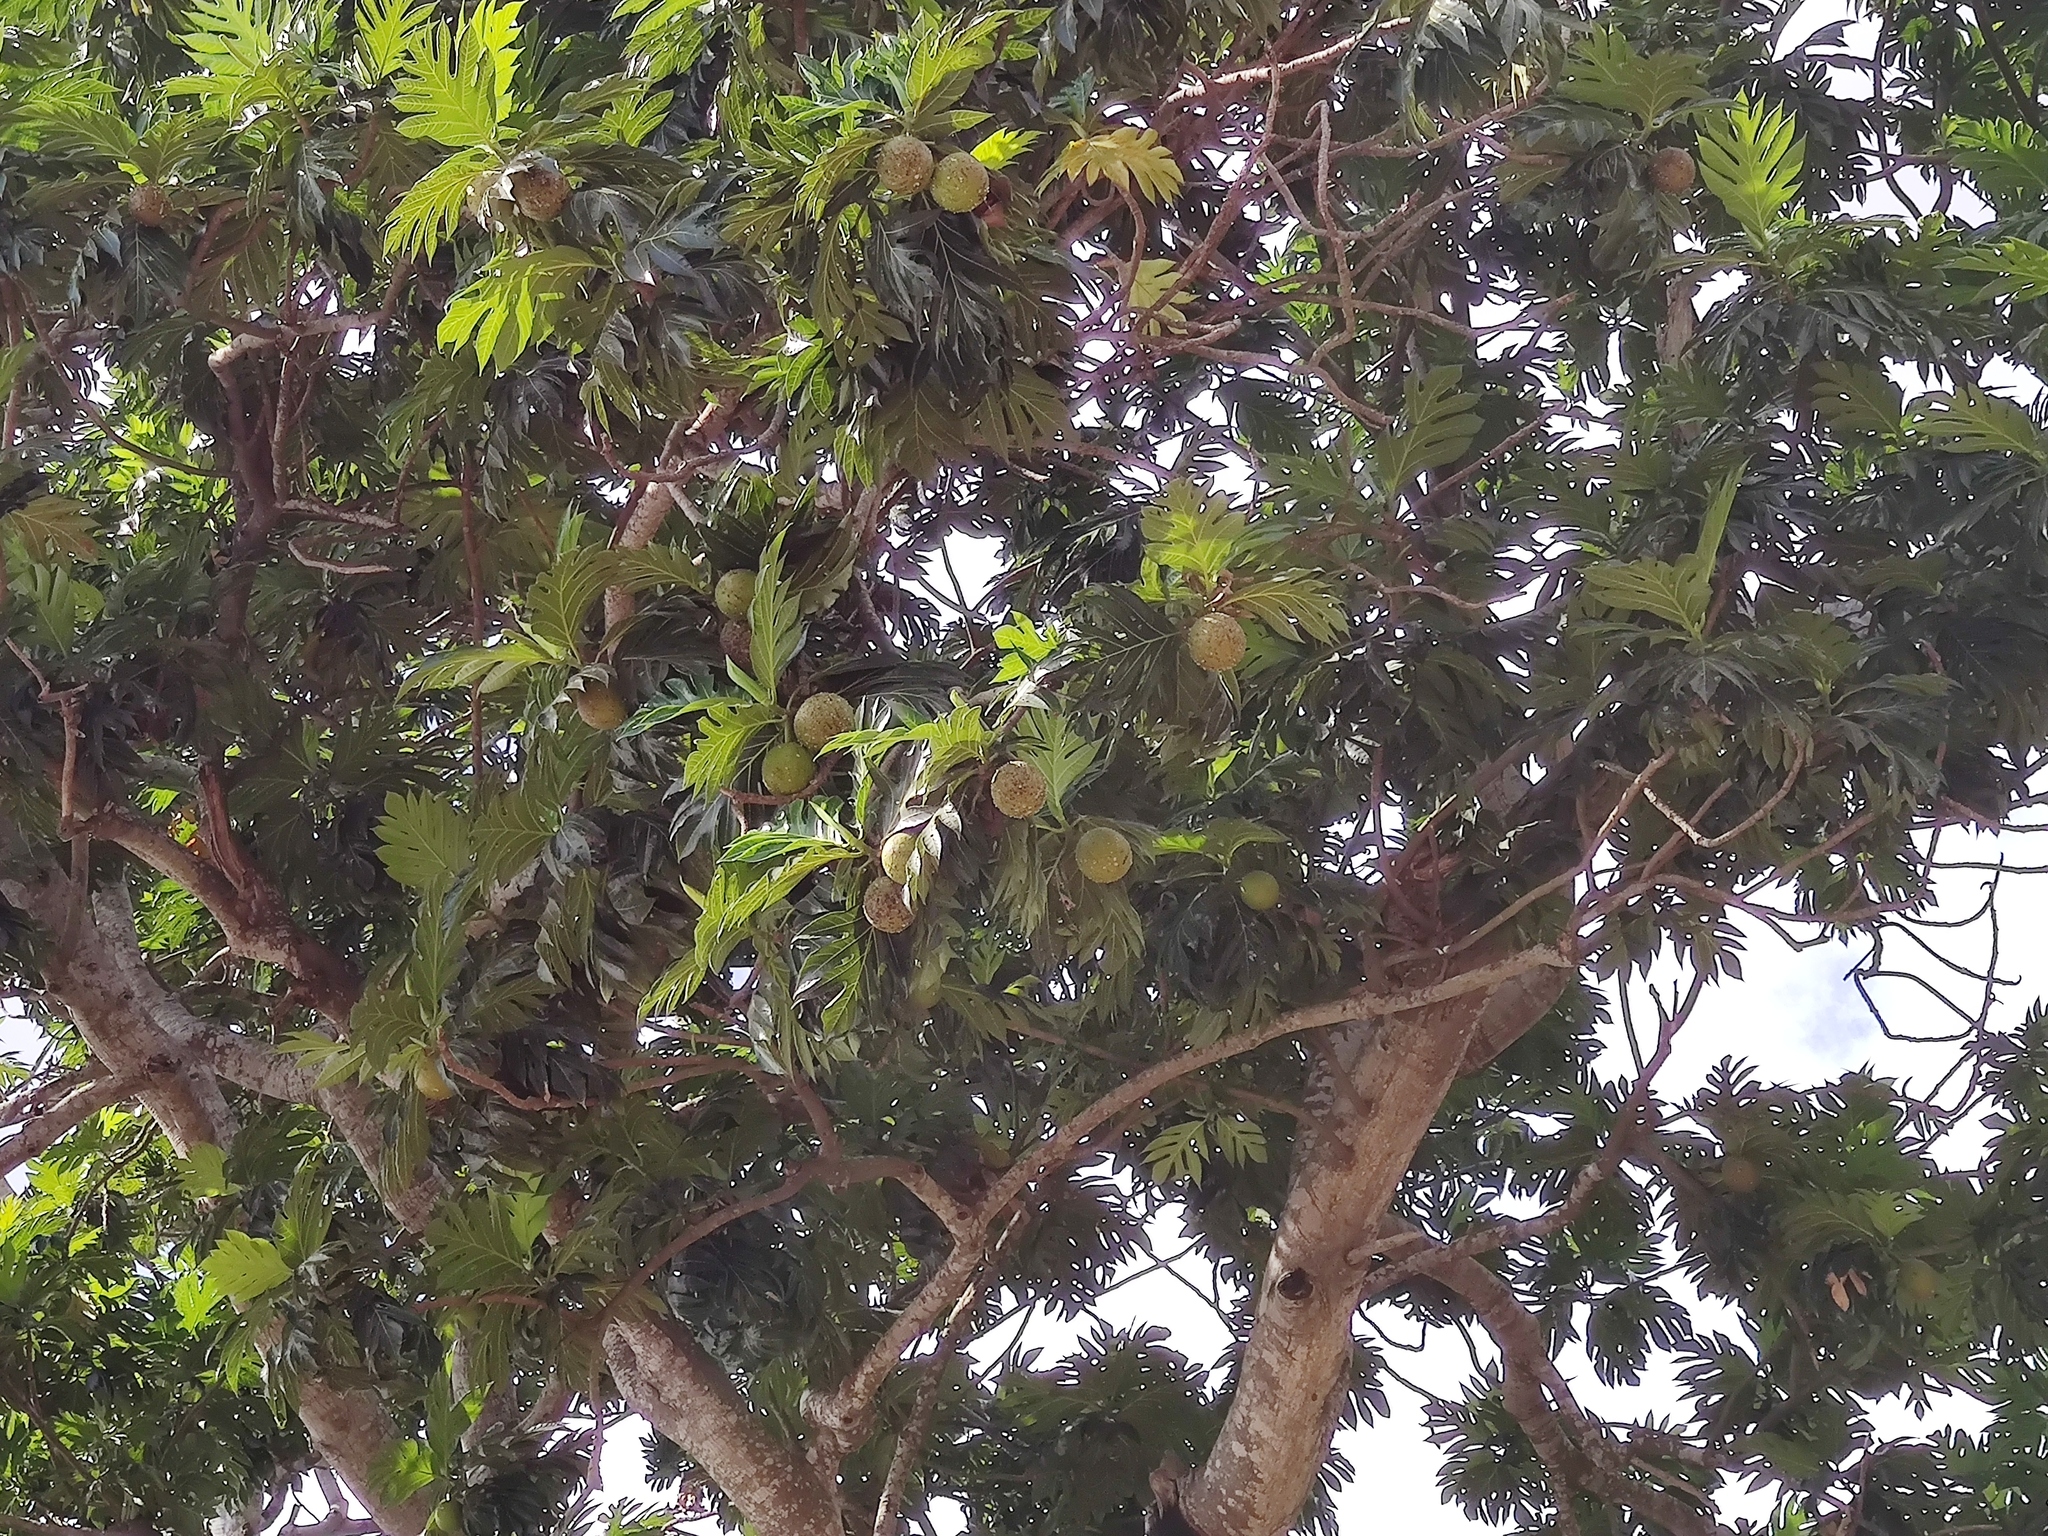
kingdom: Plantae
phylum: Tracheophyta
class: Magnoliopsida
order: Rosales
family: Moraceae
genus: Artocarpus
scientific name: Artocarpus altilis
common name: Breadfruit
